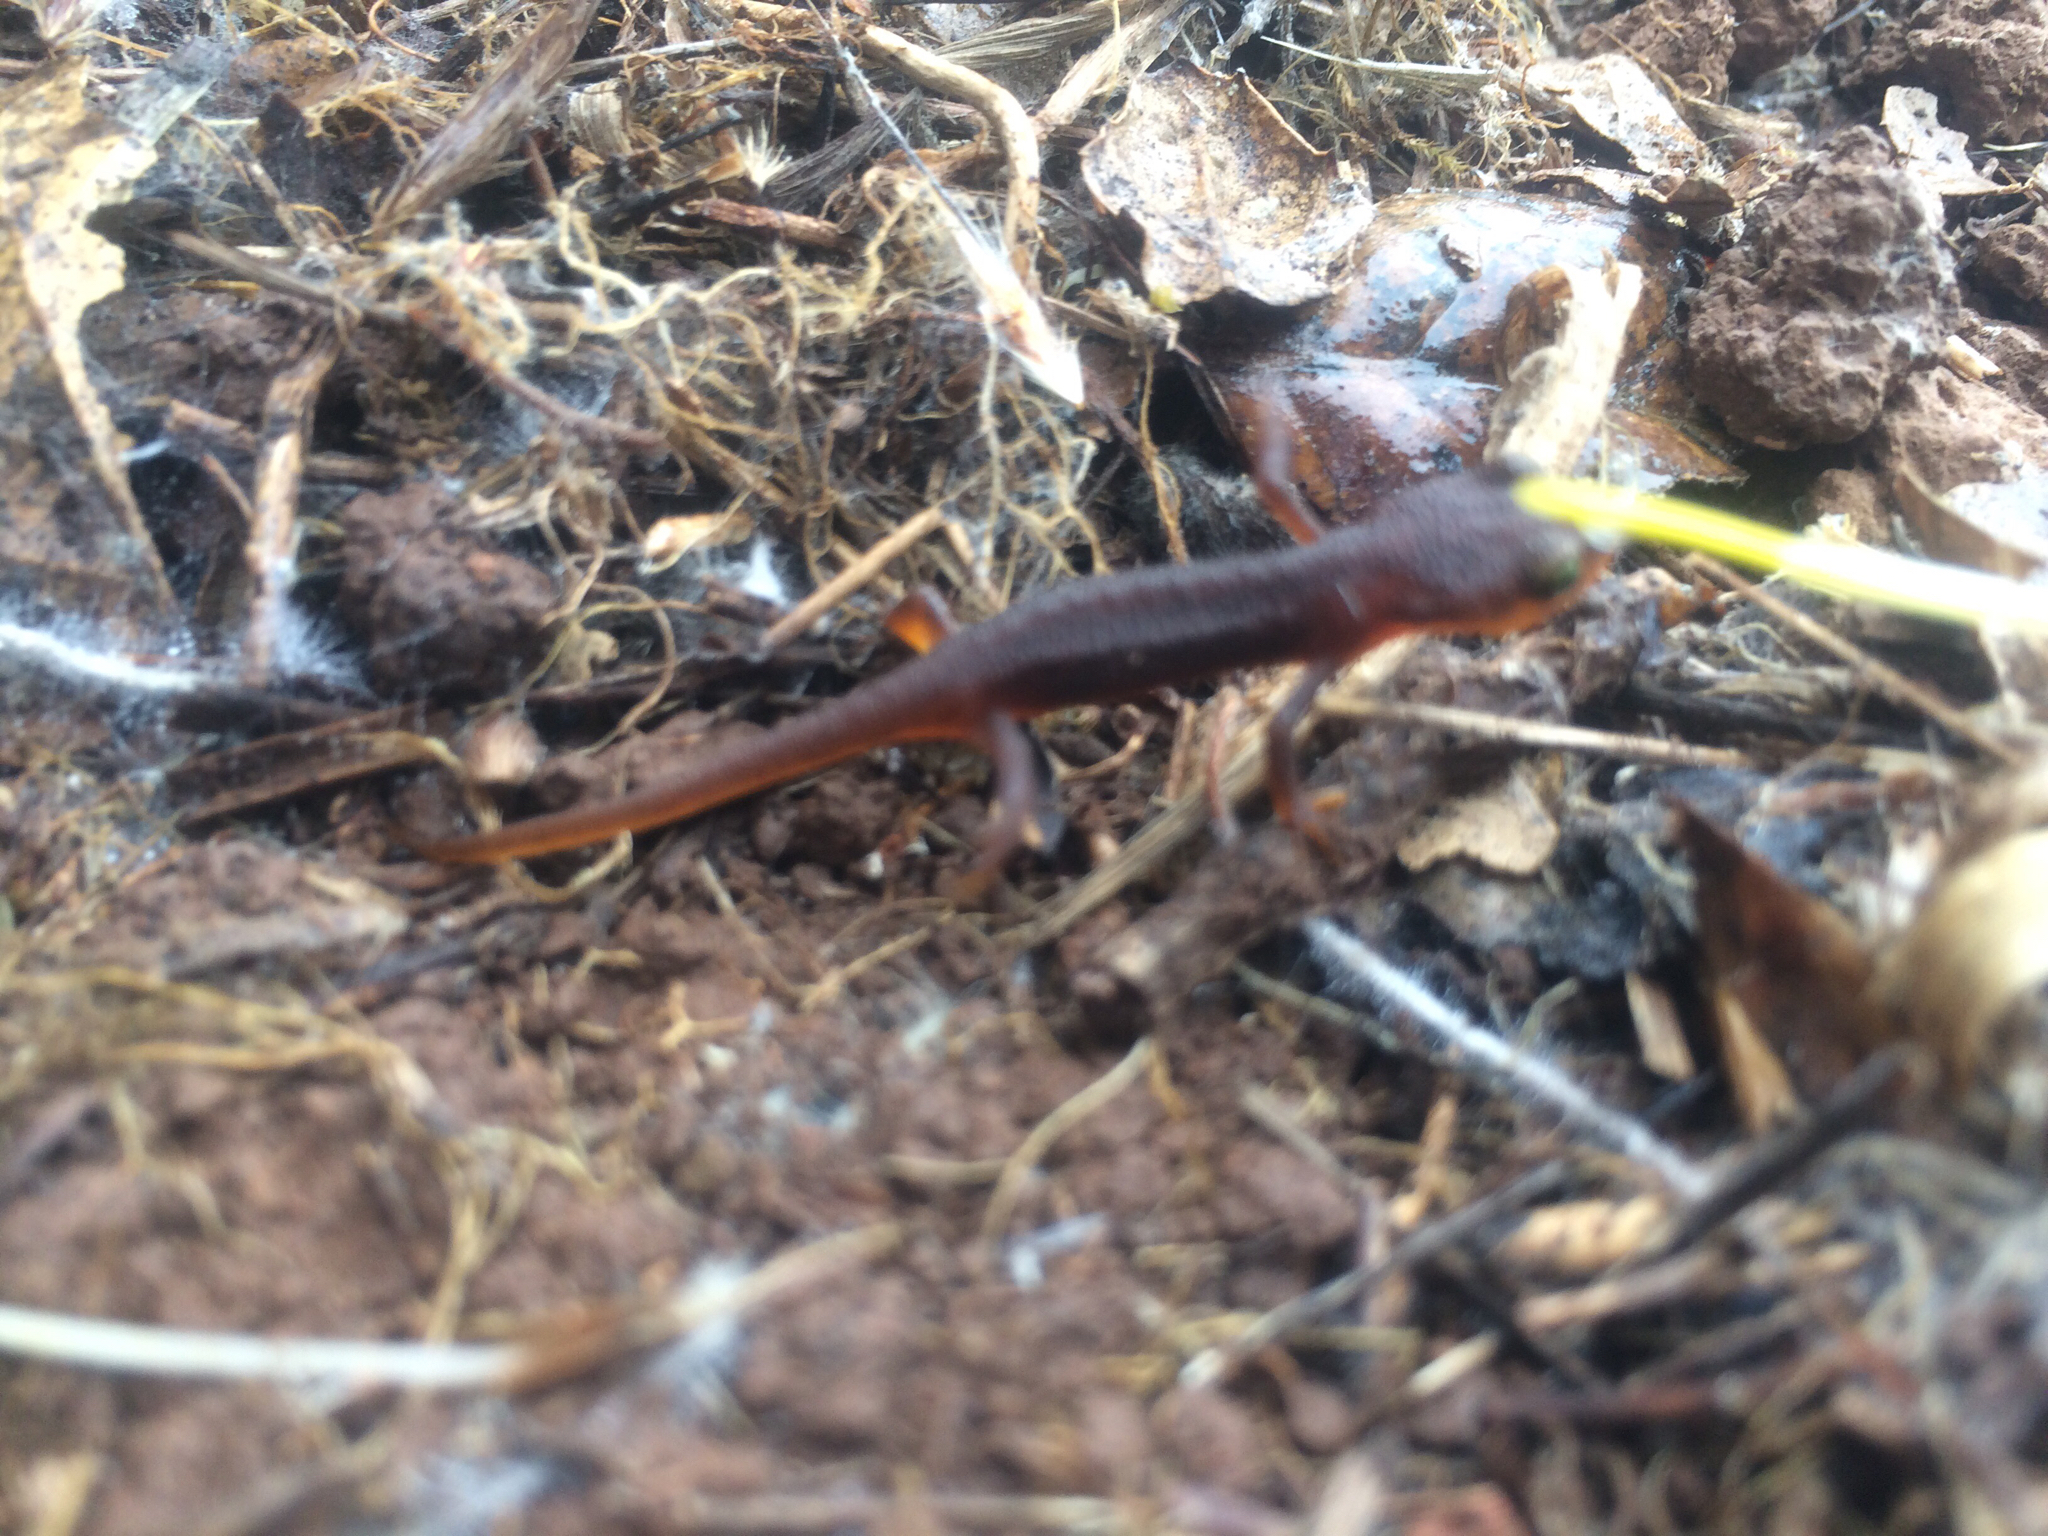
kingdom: Animalia
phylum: Chordata
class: Amphibia
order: Caudata
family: Salamandridae
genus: Taricha
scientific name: Taricha torosa
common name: California newt
